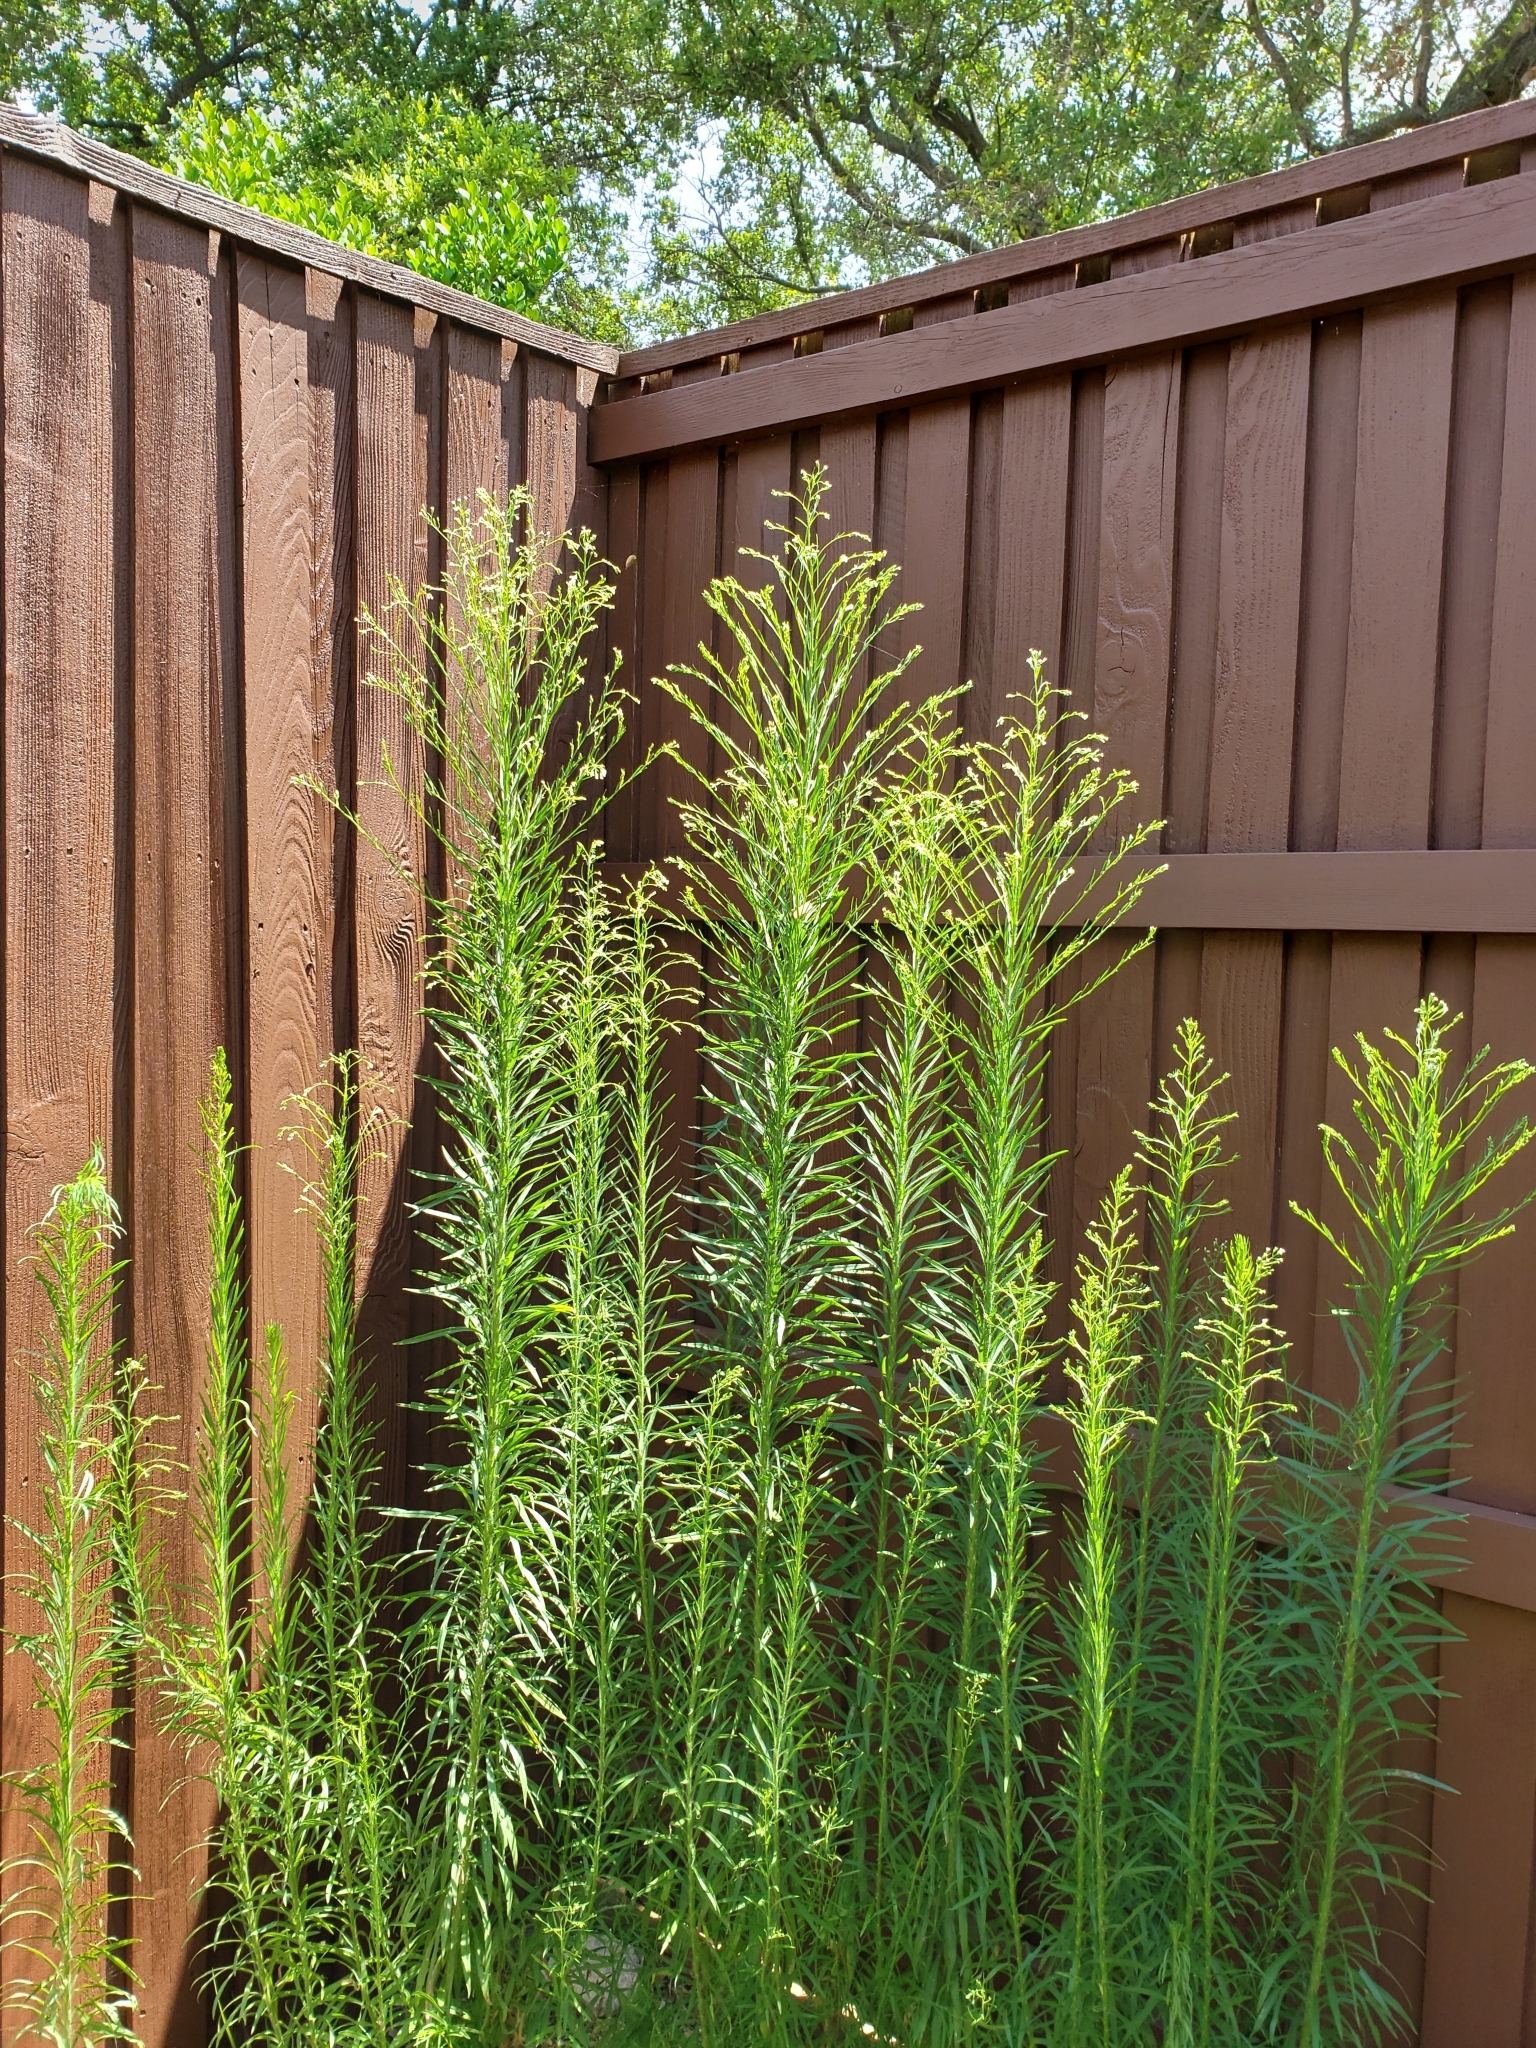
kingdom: Plantae
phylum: Tracheophyta
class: Magnoliopsida
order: Asterales
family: Asteraceae
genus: Erigeron
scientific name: Erigeron canadensis
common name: Canadian fleabane
